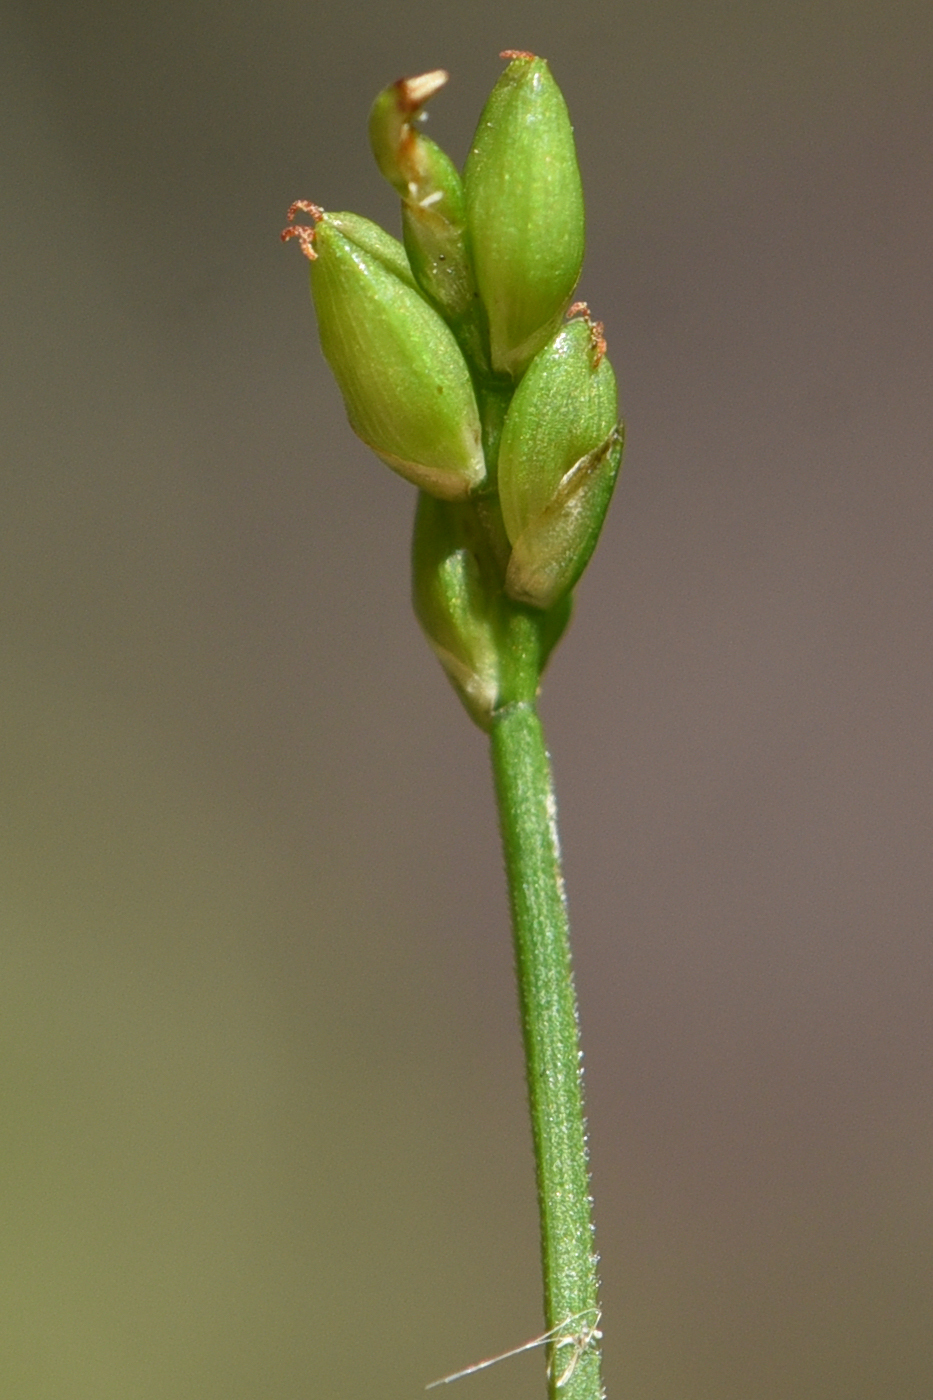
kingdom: Plantae
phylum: Tracheophyta
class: Liliopsida
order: Poales
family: Cyperaceae
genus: Carex
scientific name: Carex leptalea
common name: Bristly-stalked sedge
